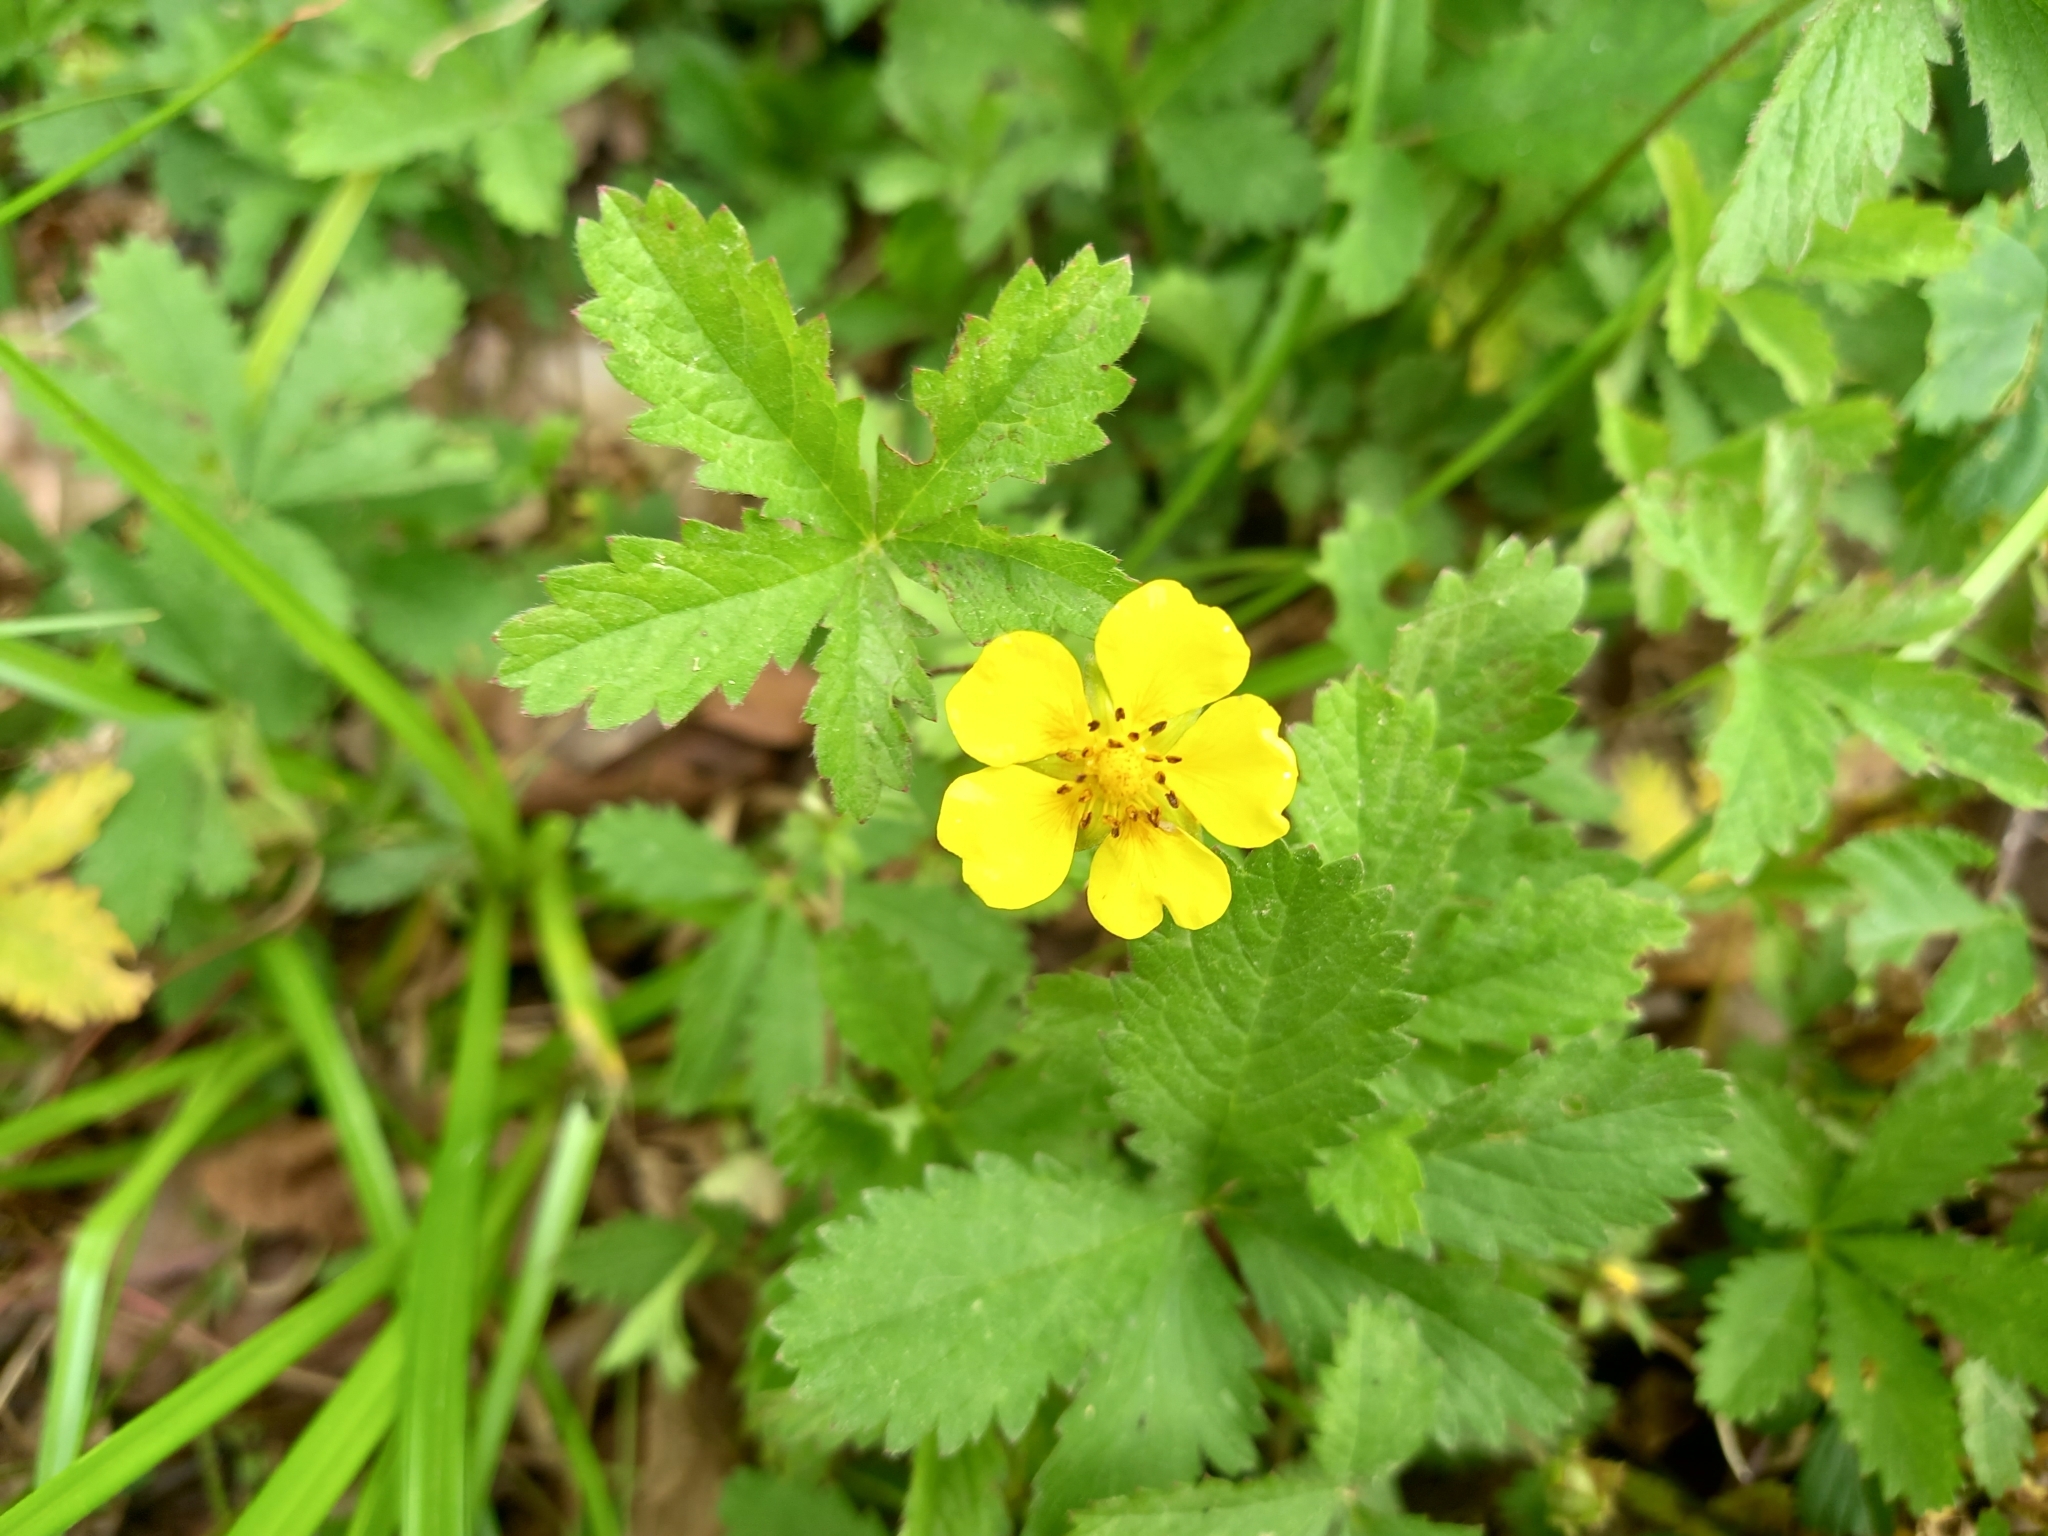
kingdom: Plantae
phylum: Tracheophyta
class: Magnoliopsida
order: Rosales
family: Rosaceae
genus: Potentilla
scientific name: Potentilla reptans
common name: Creeping cinquefoil
